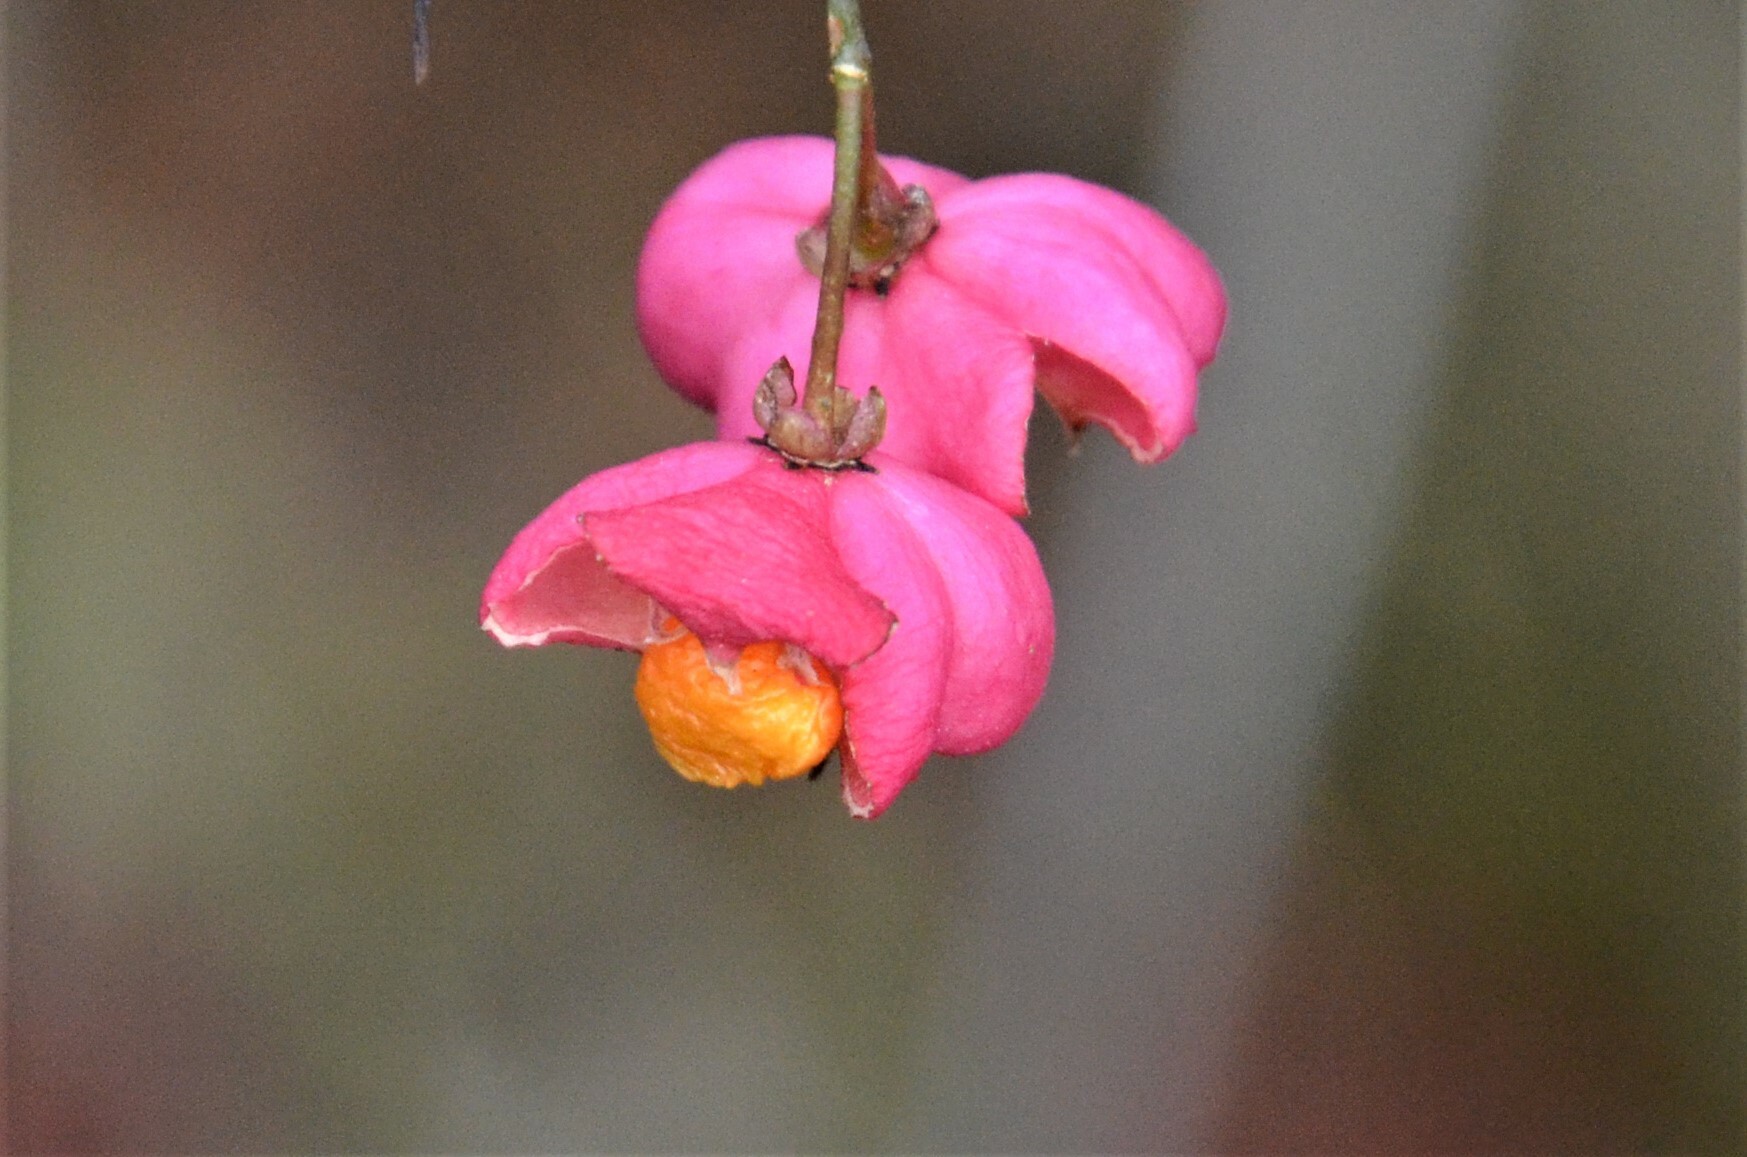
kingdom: Plantae
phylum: Tracheophyta
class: Magnoliopsida
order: Celastrales
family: Celastraceae
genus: Euonymus
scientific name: Euonymus europaeus
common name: Spindle
